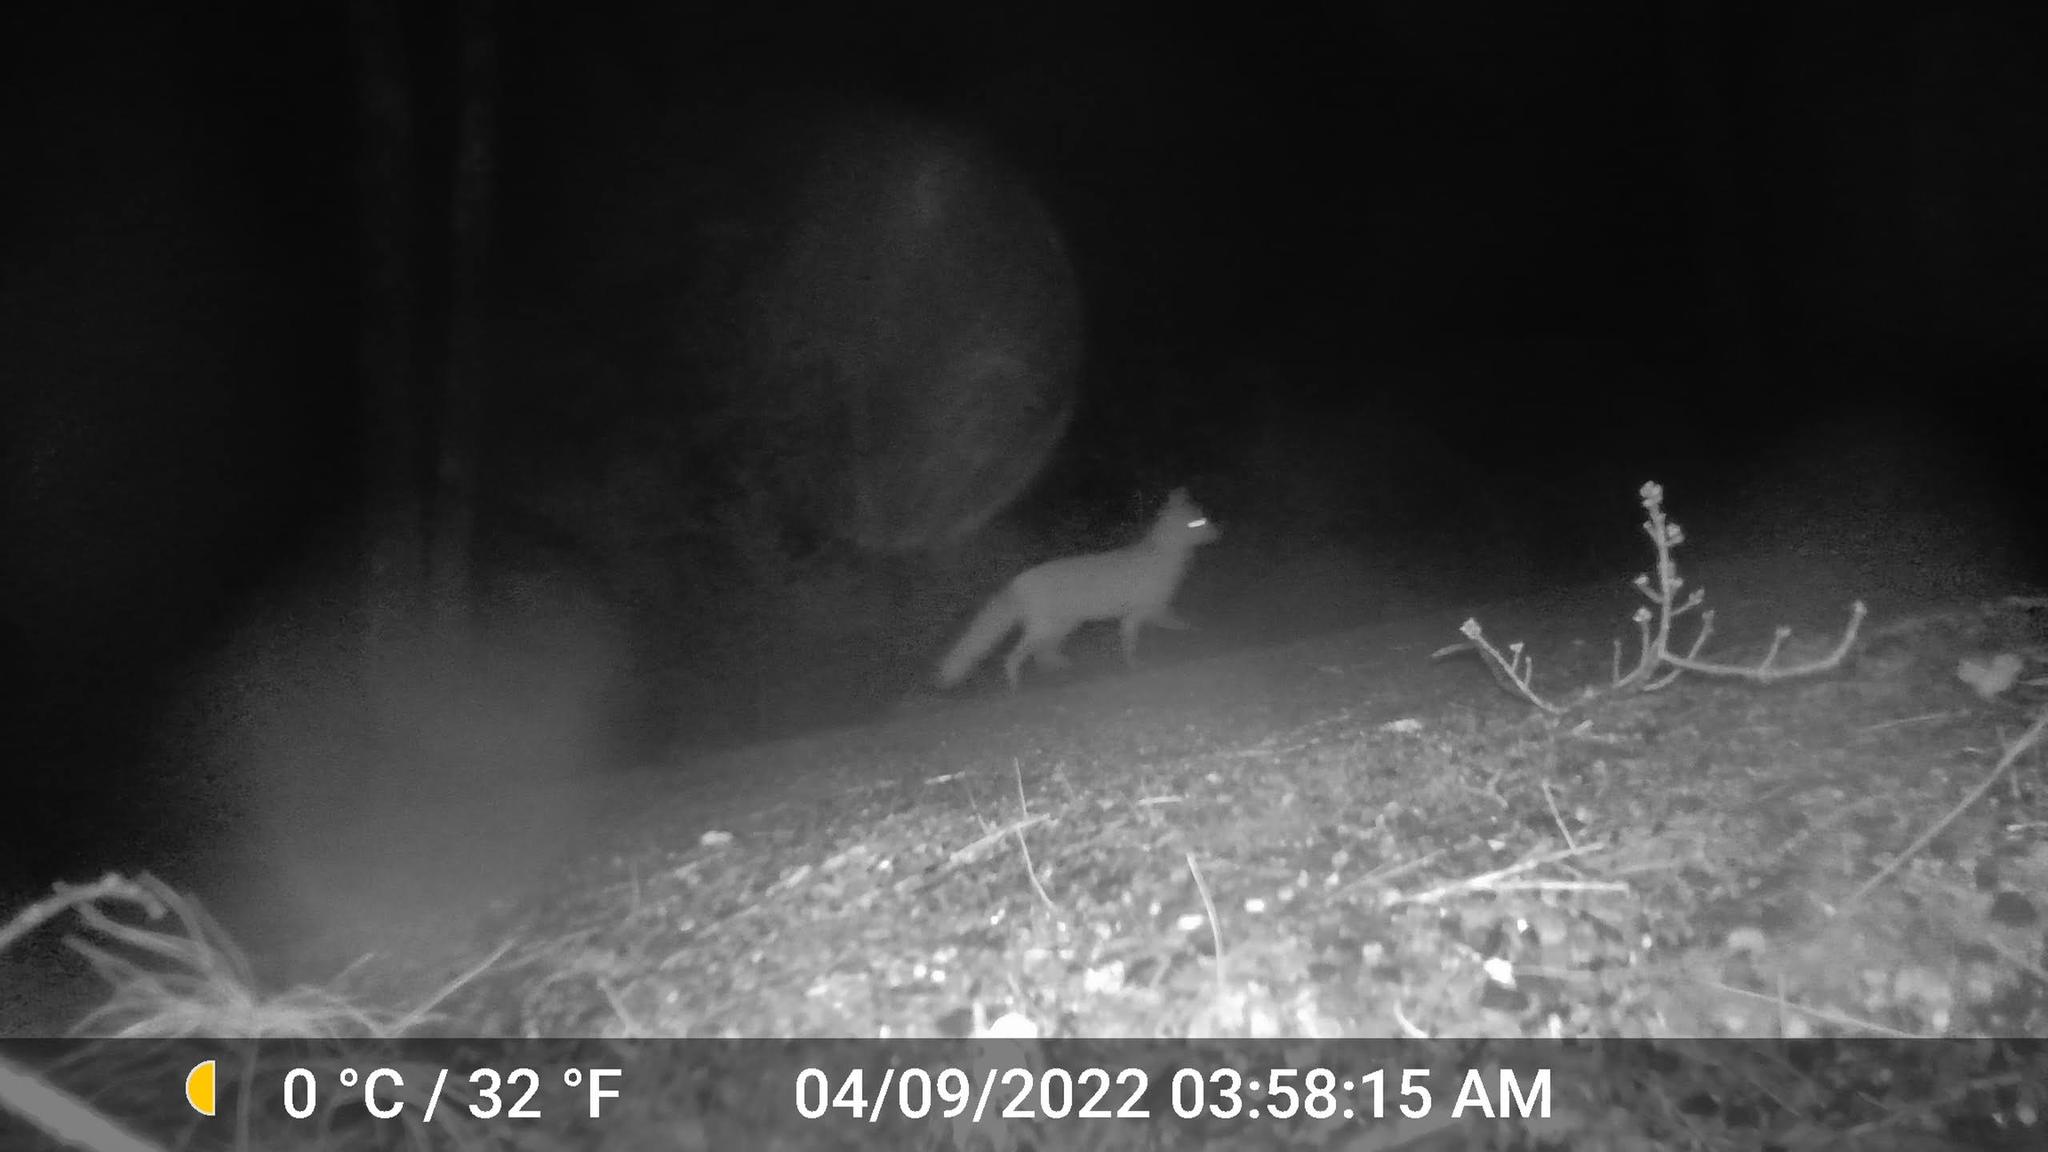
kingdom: Animalia
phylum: Chordata
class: Mammalia
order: Carnivora
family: Canidae
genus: Vulpes
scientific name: Vulpes vulpes
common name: Red fox
